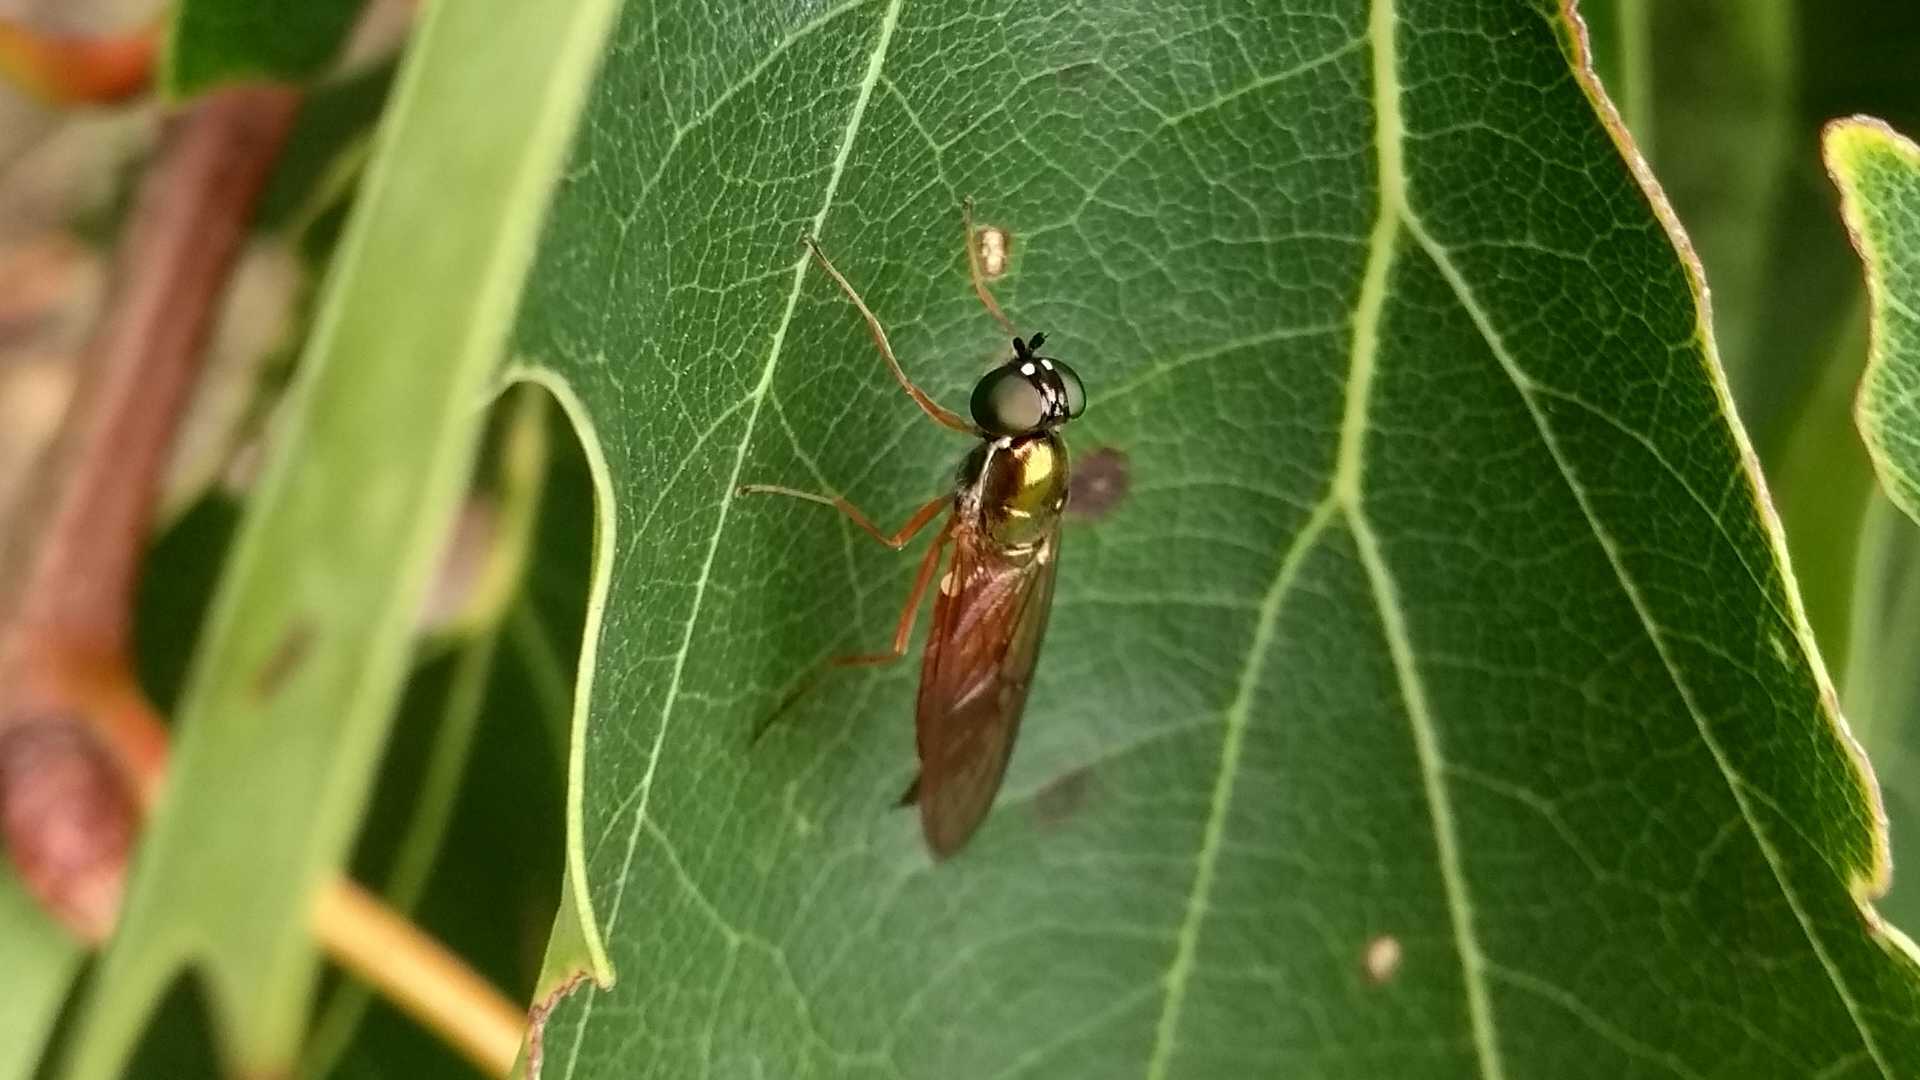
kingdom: Animalia
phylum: Arthropoda
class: Insecta
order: Diptera
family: Stratiomyidae
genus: Sargus
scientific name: Sargus bipunctatus
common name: Twin-spot centurion
